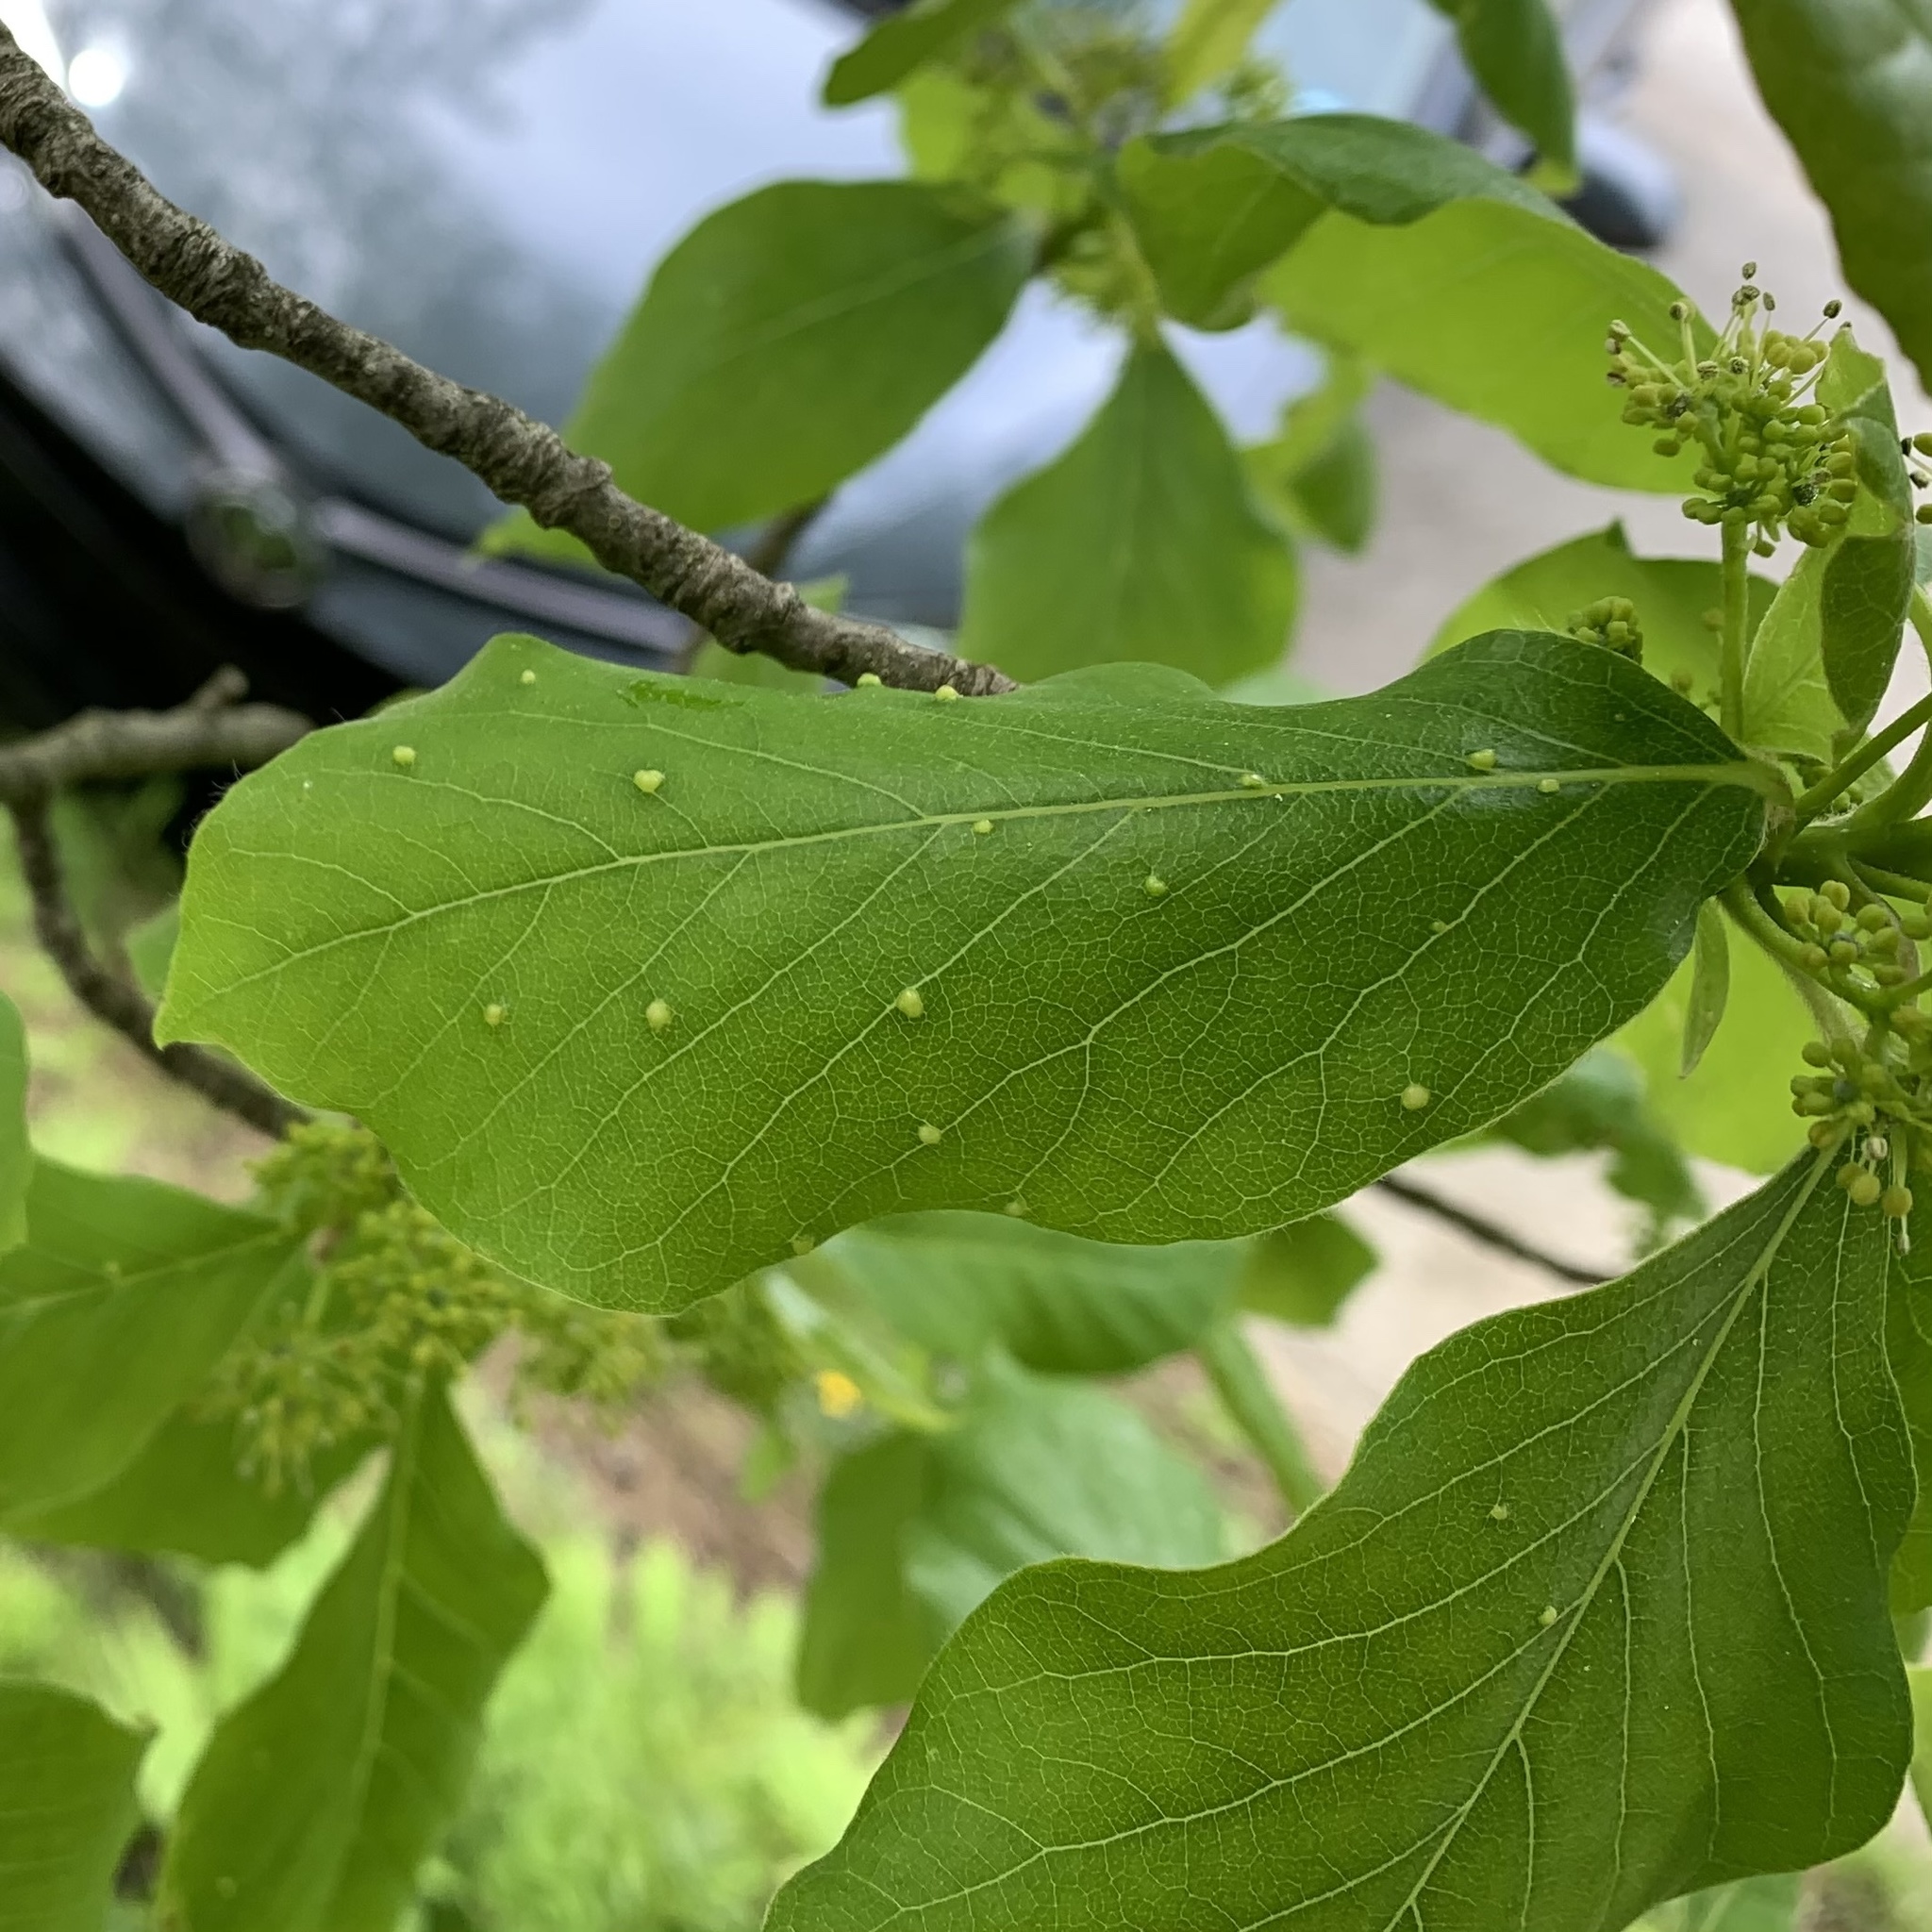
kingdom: Animalia
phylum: Arthropoda
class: Arachnida
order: Trombidiformes
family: Eriophyidae
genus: Aceria
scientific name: Aceria
